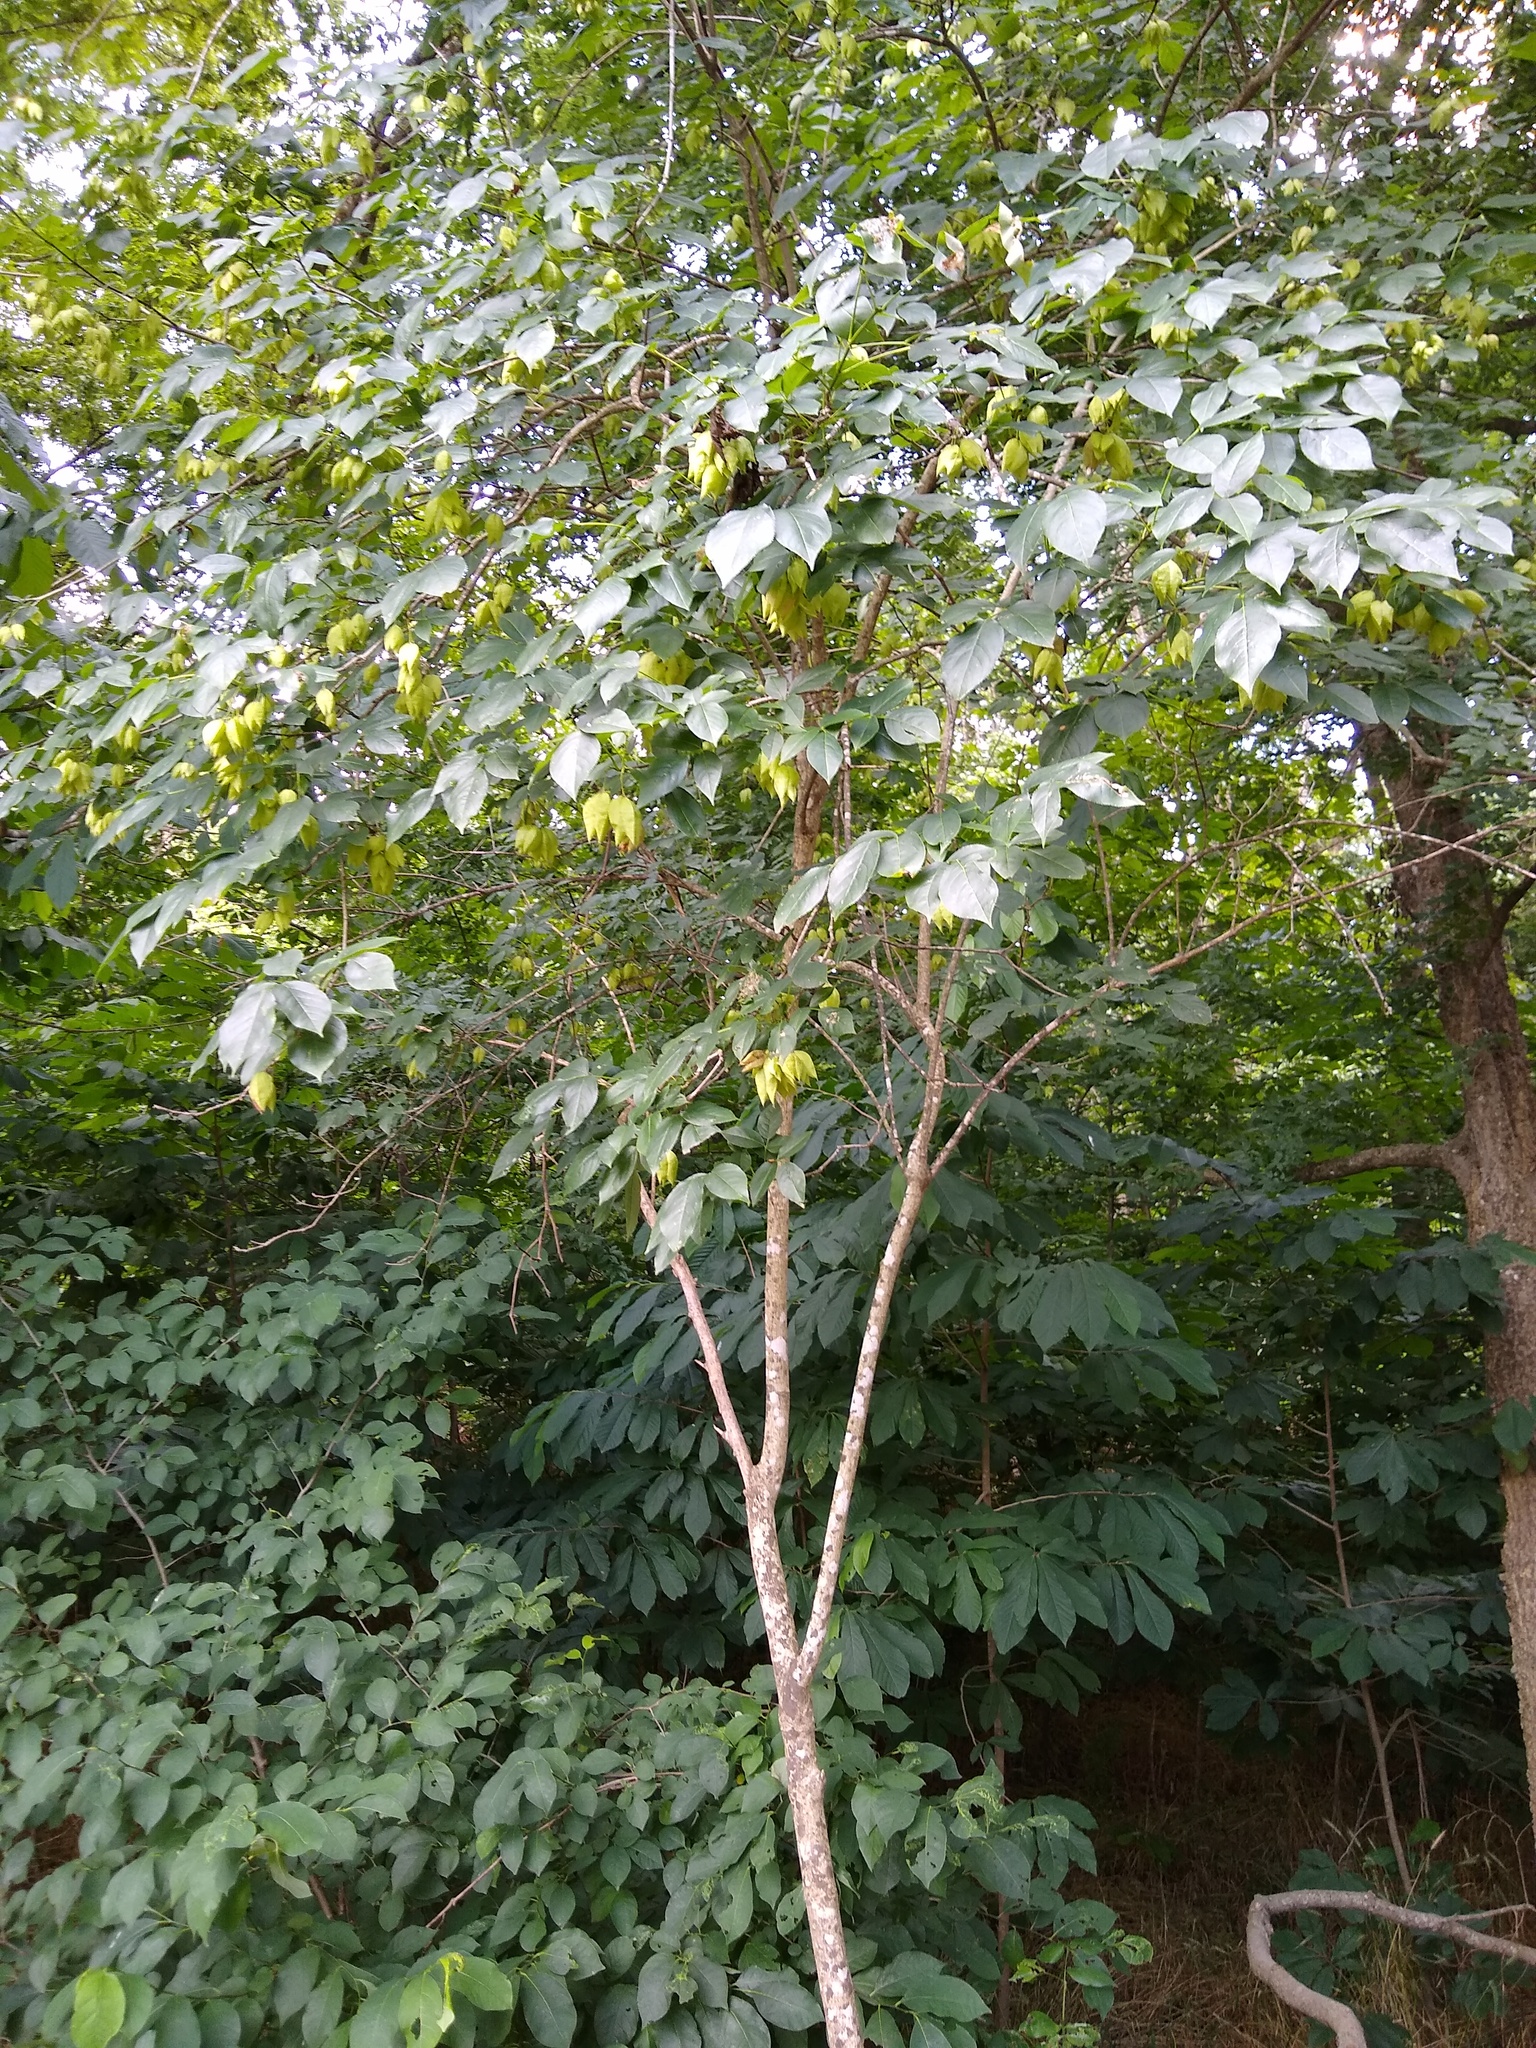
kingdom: Plantae
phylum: Tracheophyta
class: Magnoliopsida
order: Crossosomatales
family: Staphyleaceae
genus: Staphylea
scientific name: Staphylea trifolia
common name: American bladdernut
